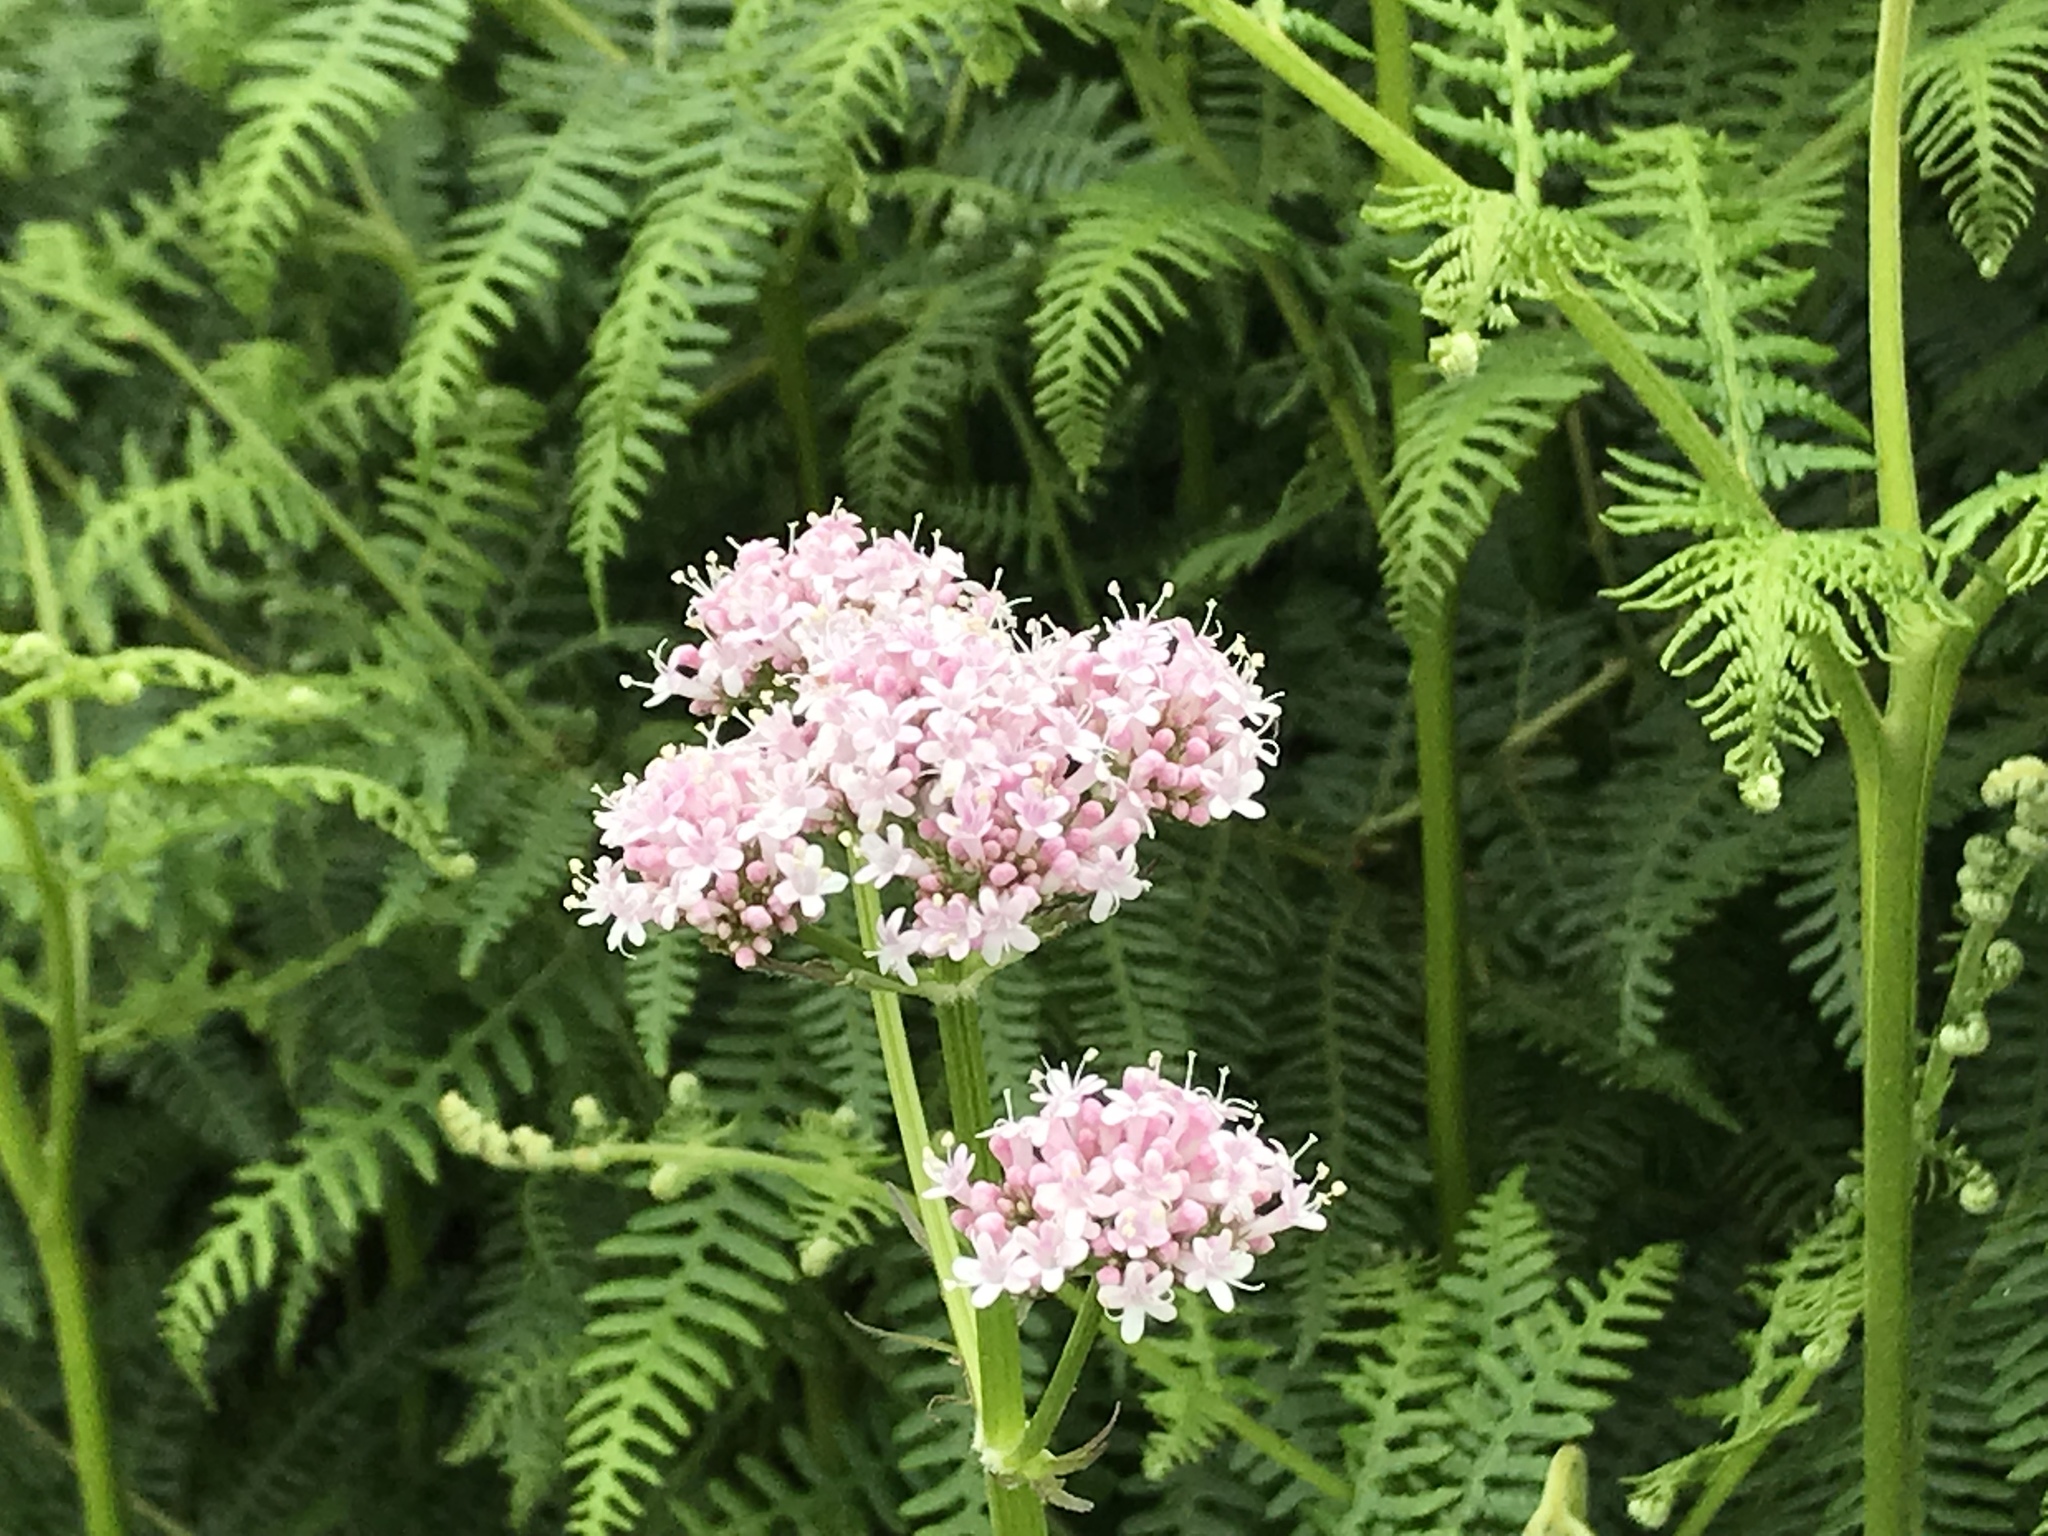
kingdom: Plantae
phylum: Tracheophyta
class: Magnoliopsida
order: Dipsacales
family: Caprifoliaceae
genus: Valeriana
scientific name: Valeriana excelsa
